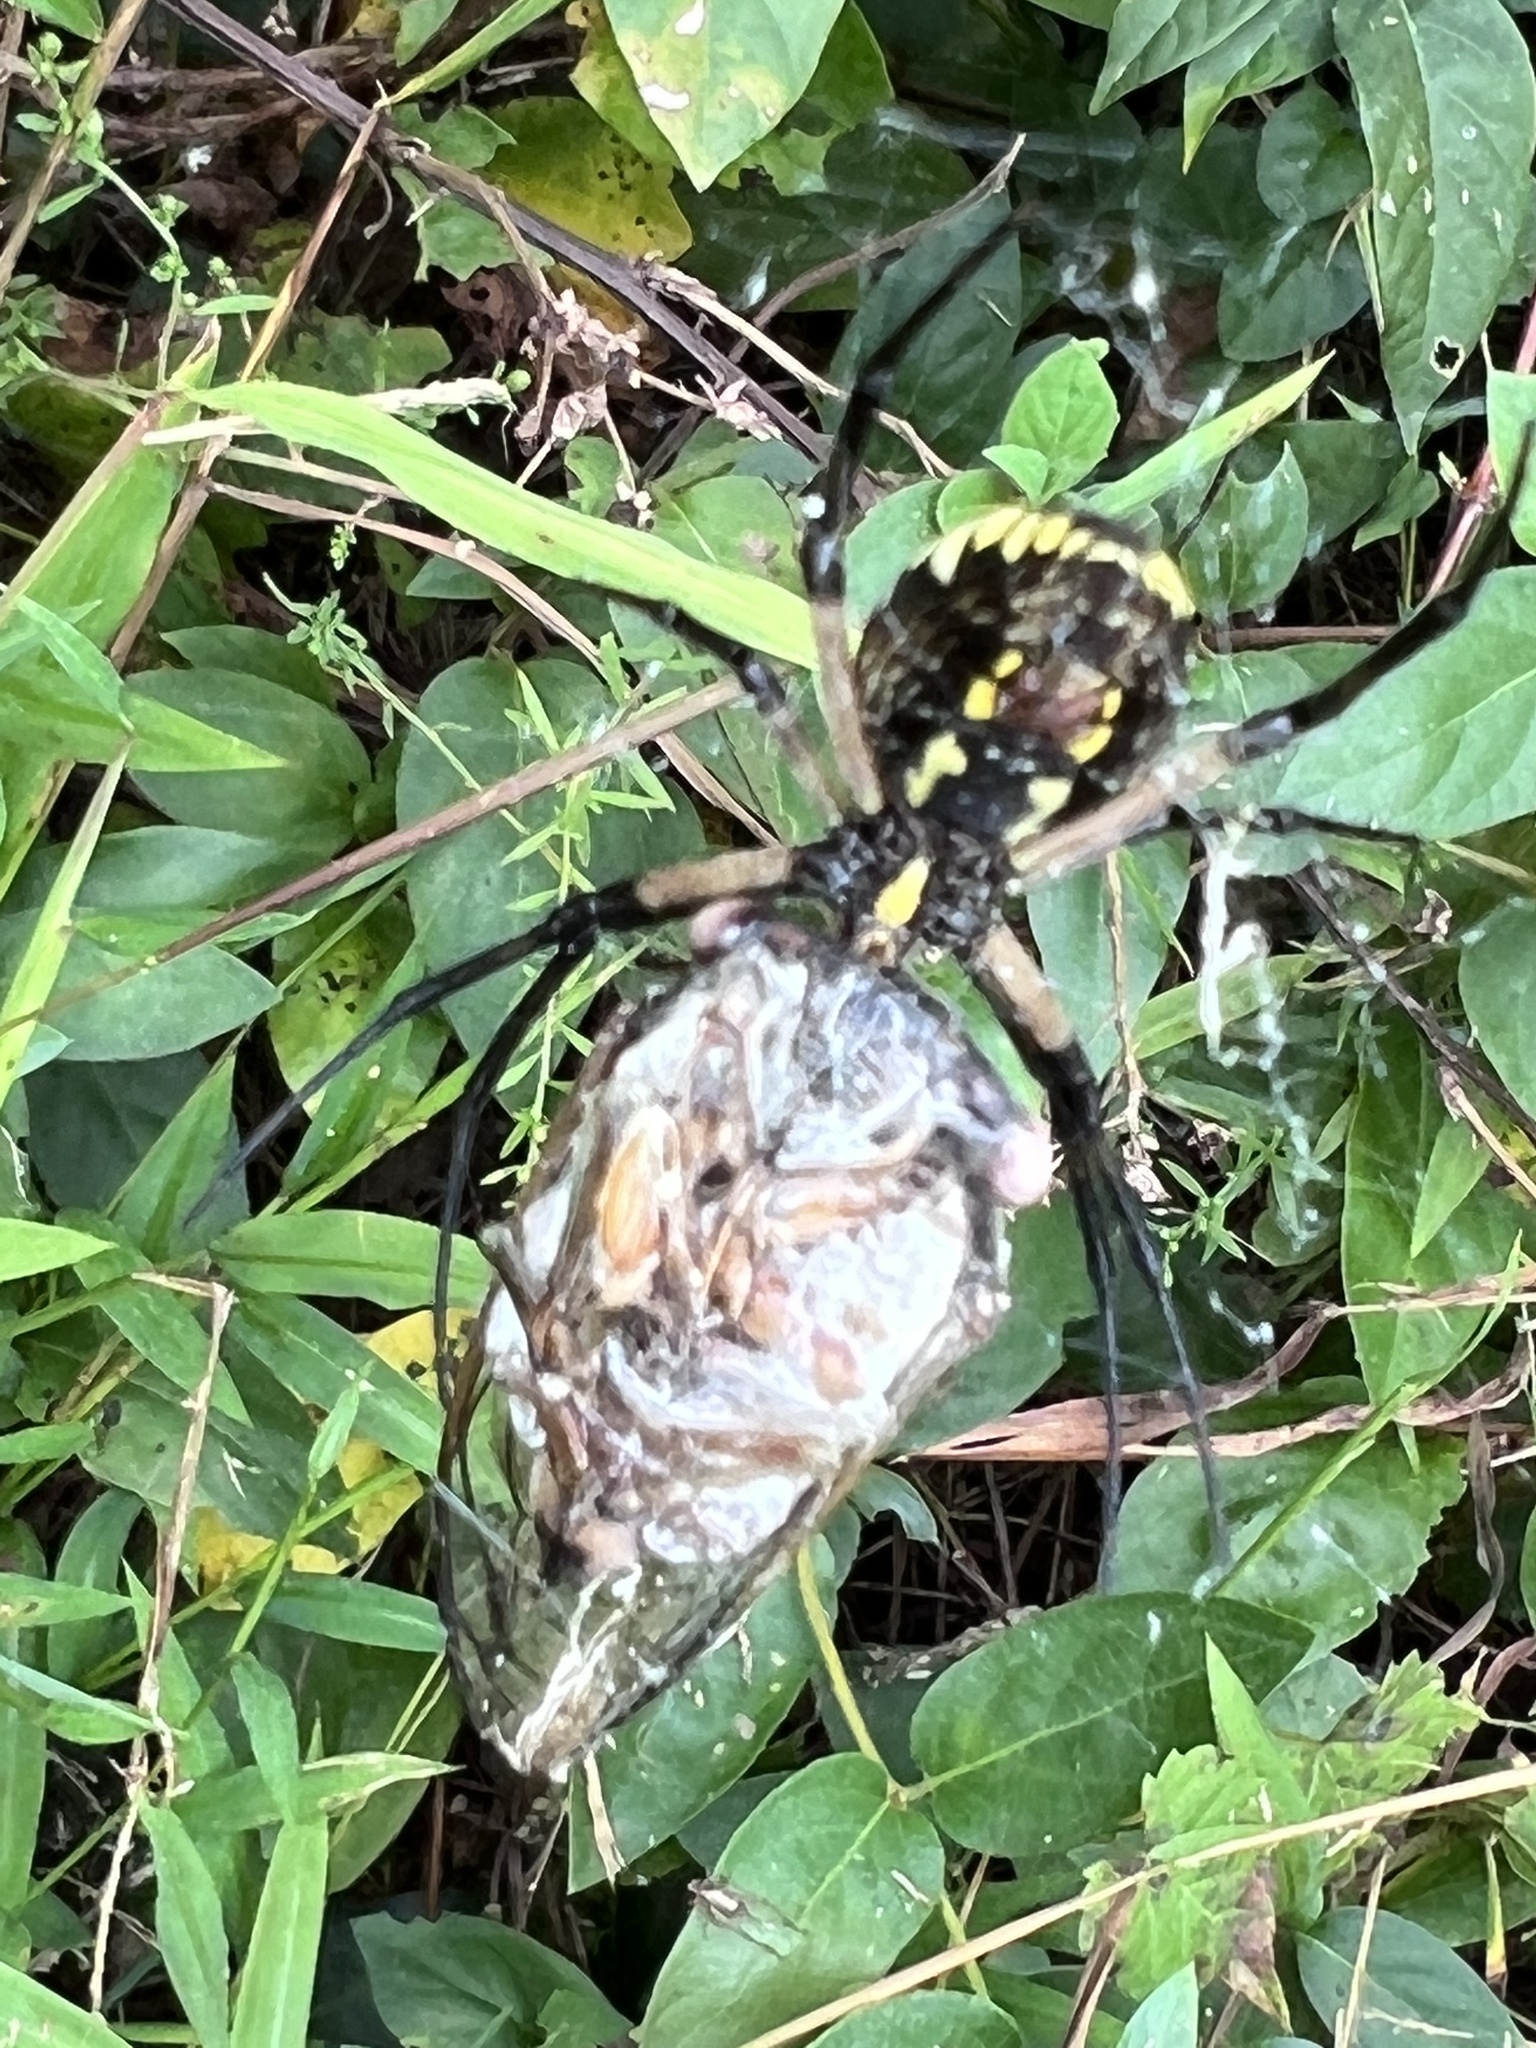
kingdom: Animalia
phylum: Arthropoda
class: Arachnida
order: Araneae
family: Araneidae
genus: Argiope
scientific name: Argiope aurantia
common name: Orb weavers
